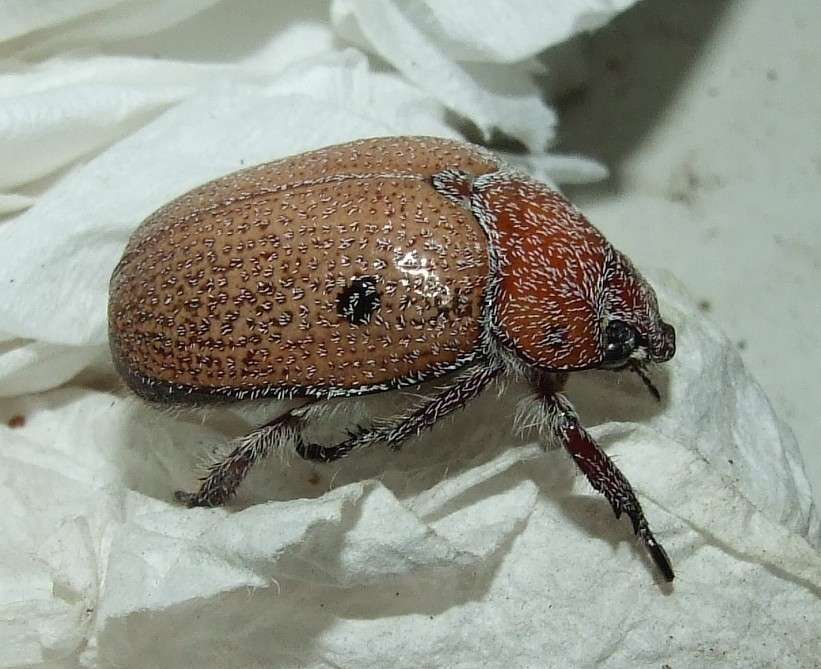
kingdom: Animalia
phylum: Arthropoda
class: Insecta
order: Coleoptera
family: Scarabaeidae
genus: Anoplognathus
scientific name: Anoplognathus velutinus
